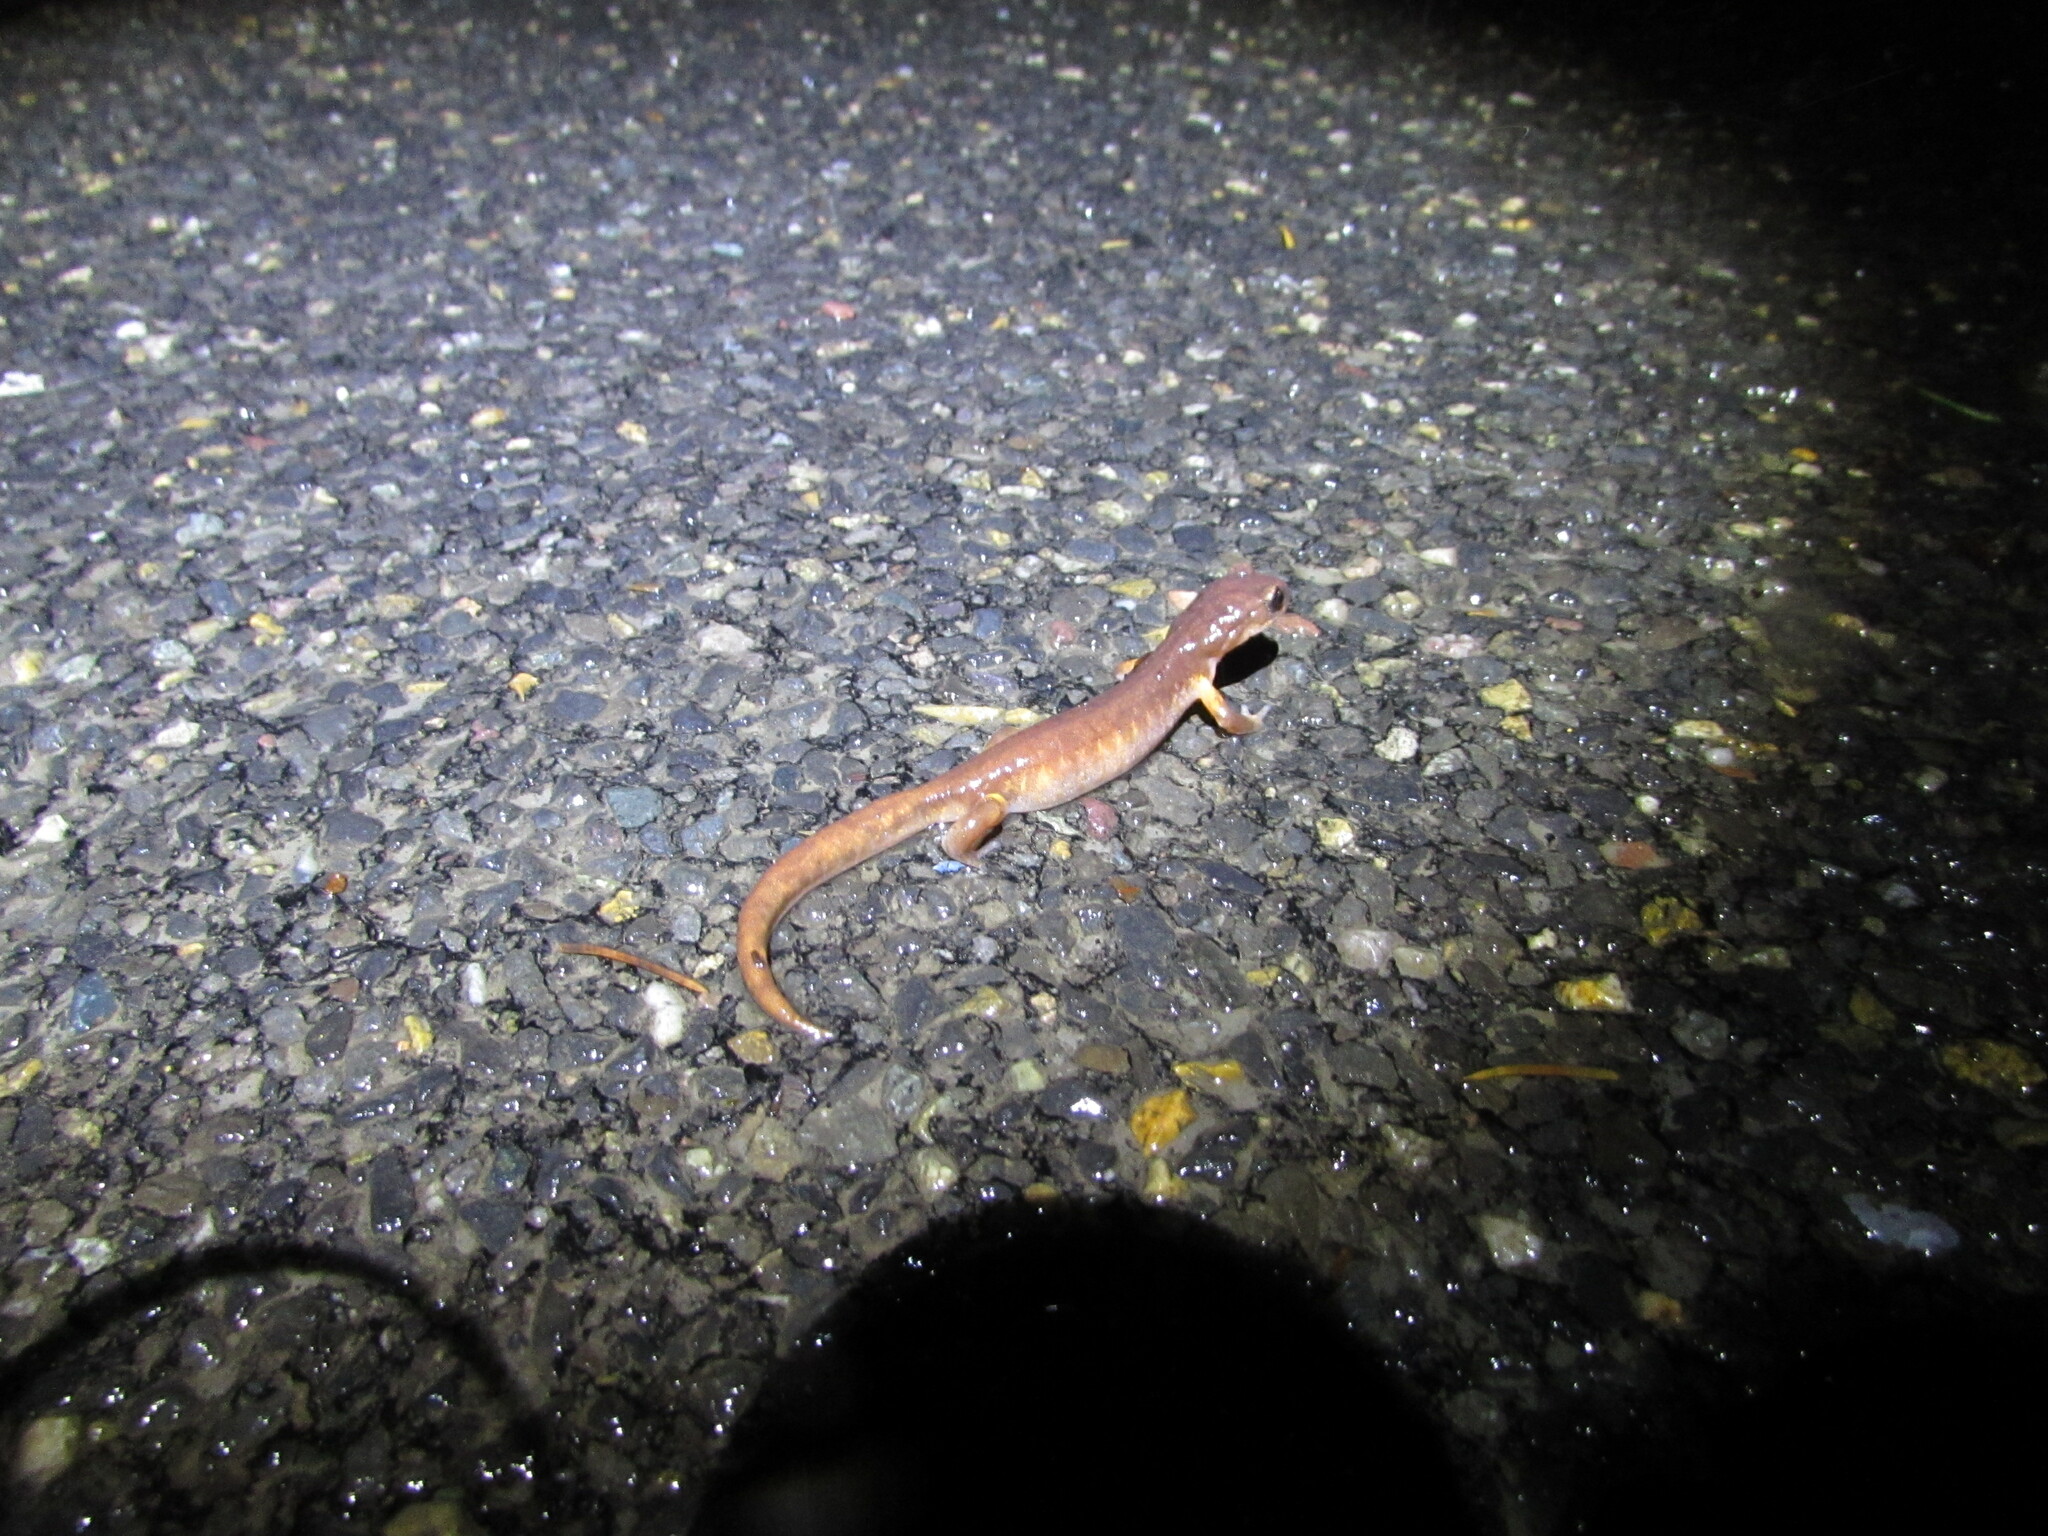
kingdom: Animalia
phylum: Chordata
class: Amphibia
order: Caudata
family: Plethodontidae
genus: Ensatina
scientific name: Ensatina eschscholtzii
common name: Ensatina
